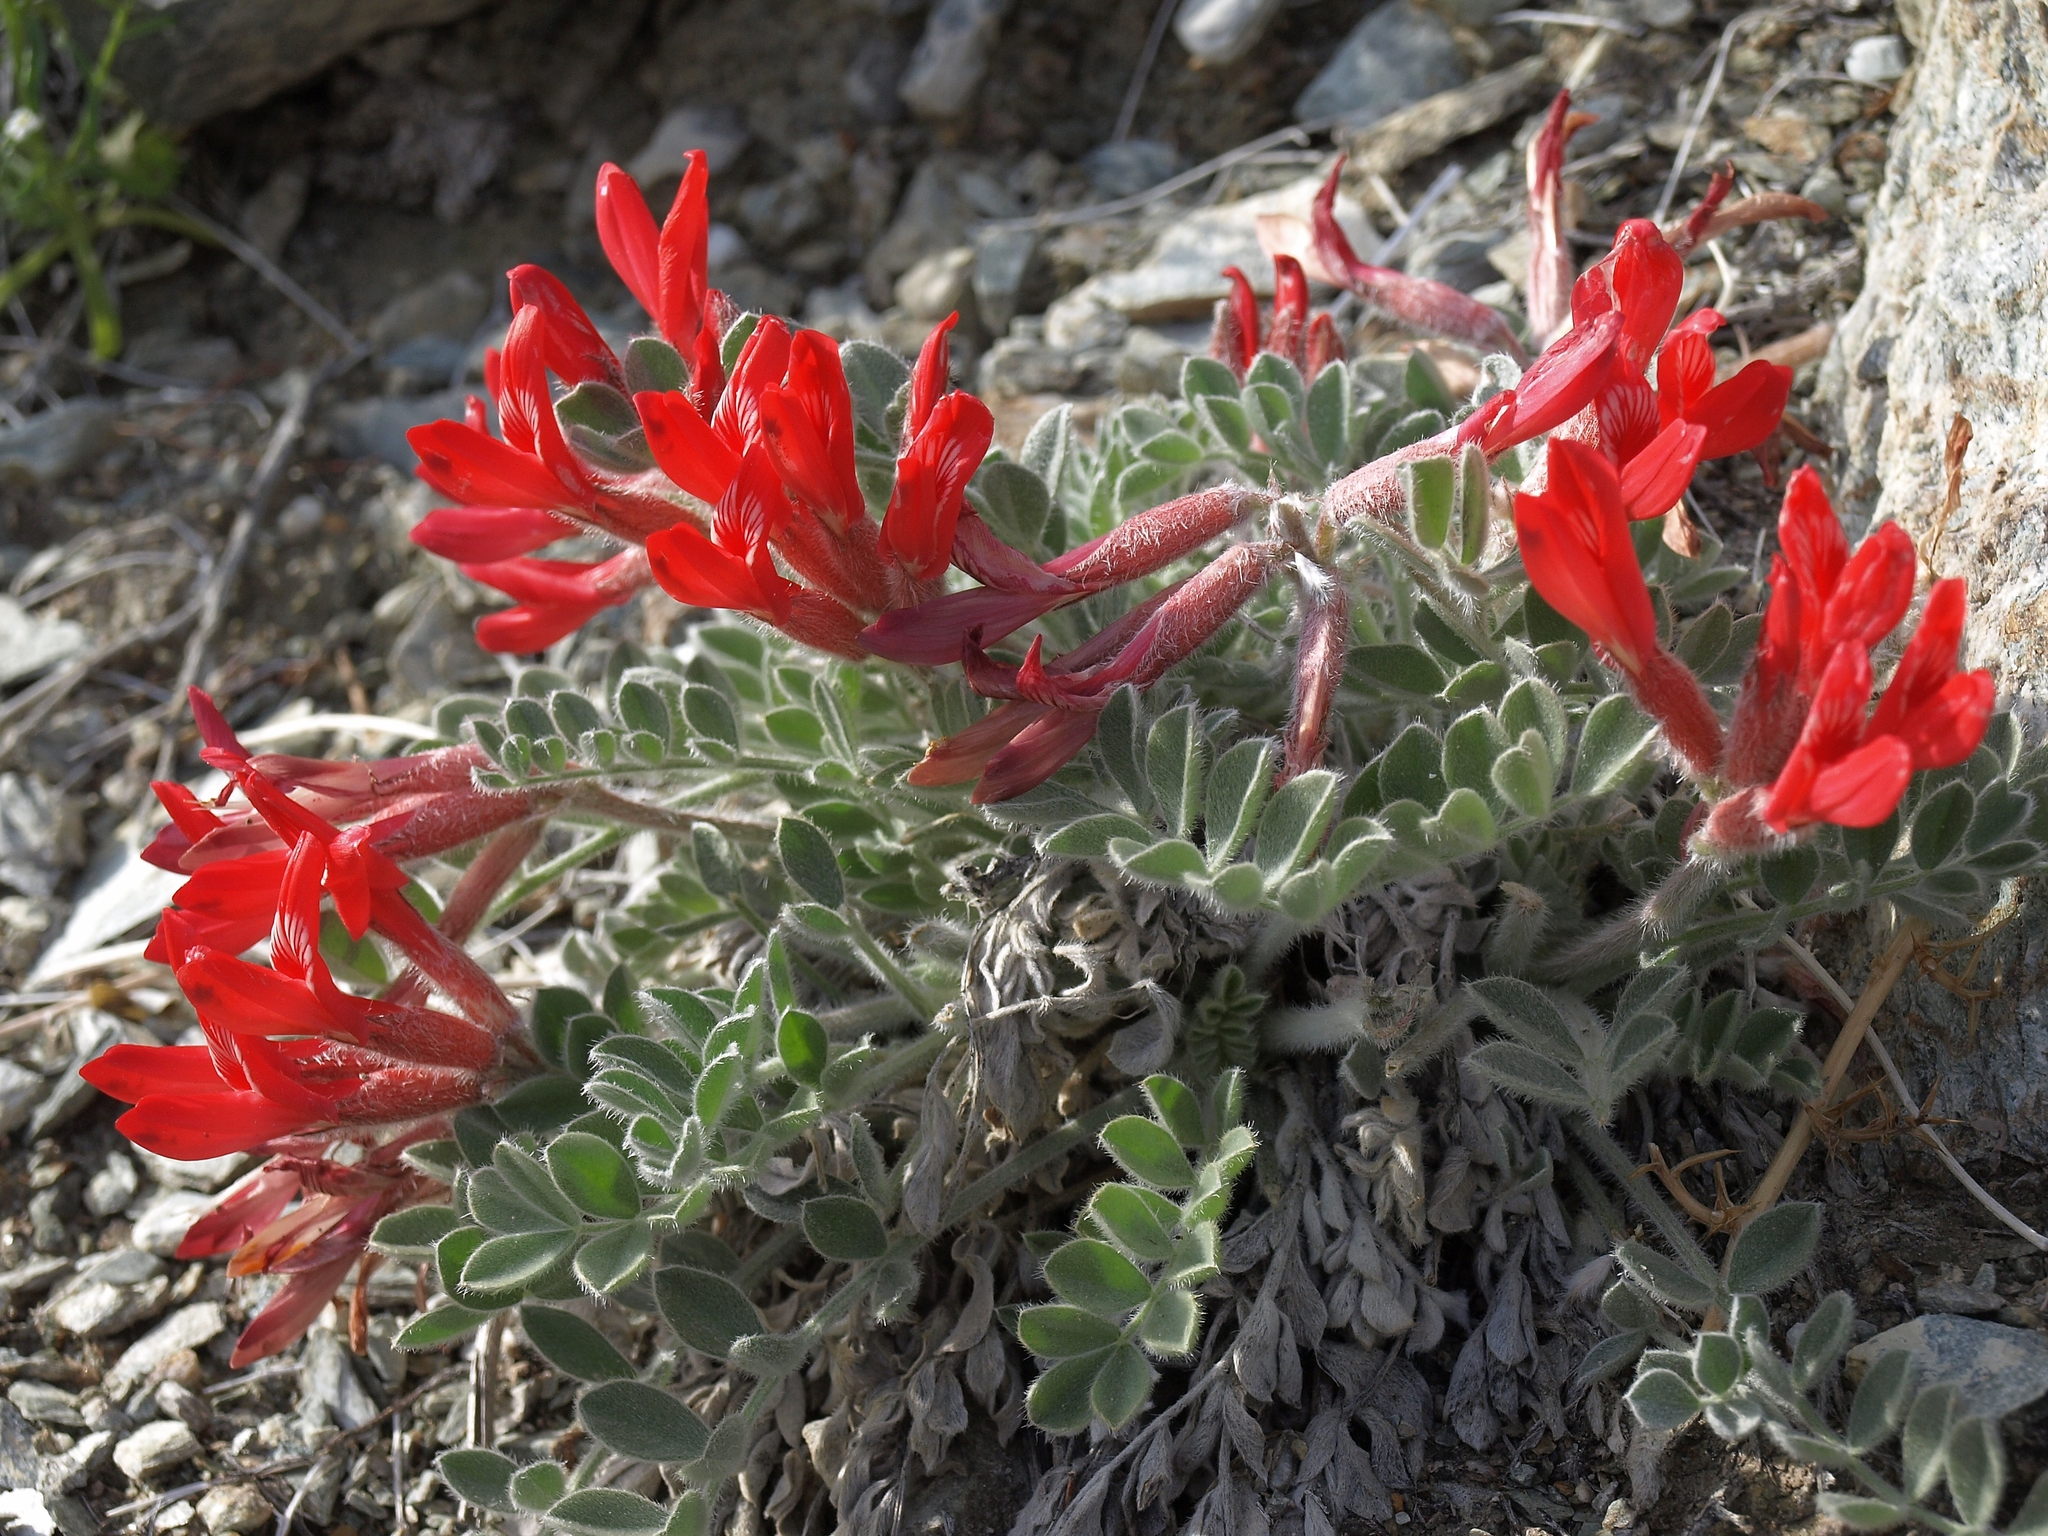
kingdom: Plantae
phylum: Tracheophyta
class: Magnoliopsida
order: Fabales
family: Fabaceae
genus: Astragalus
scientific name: Astragalus coccineus
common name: Scarlet milk-vetch
